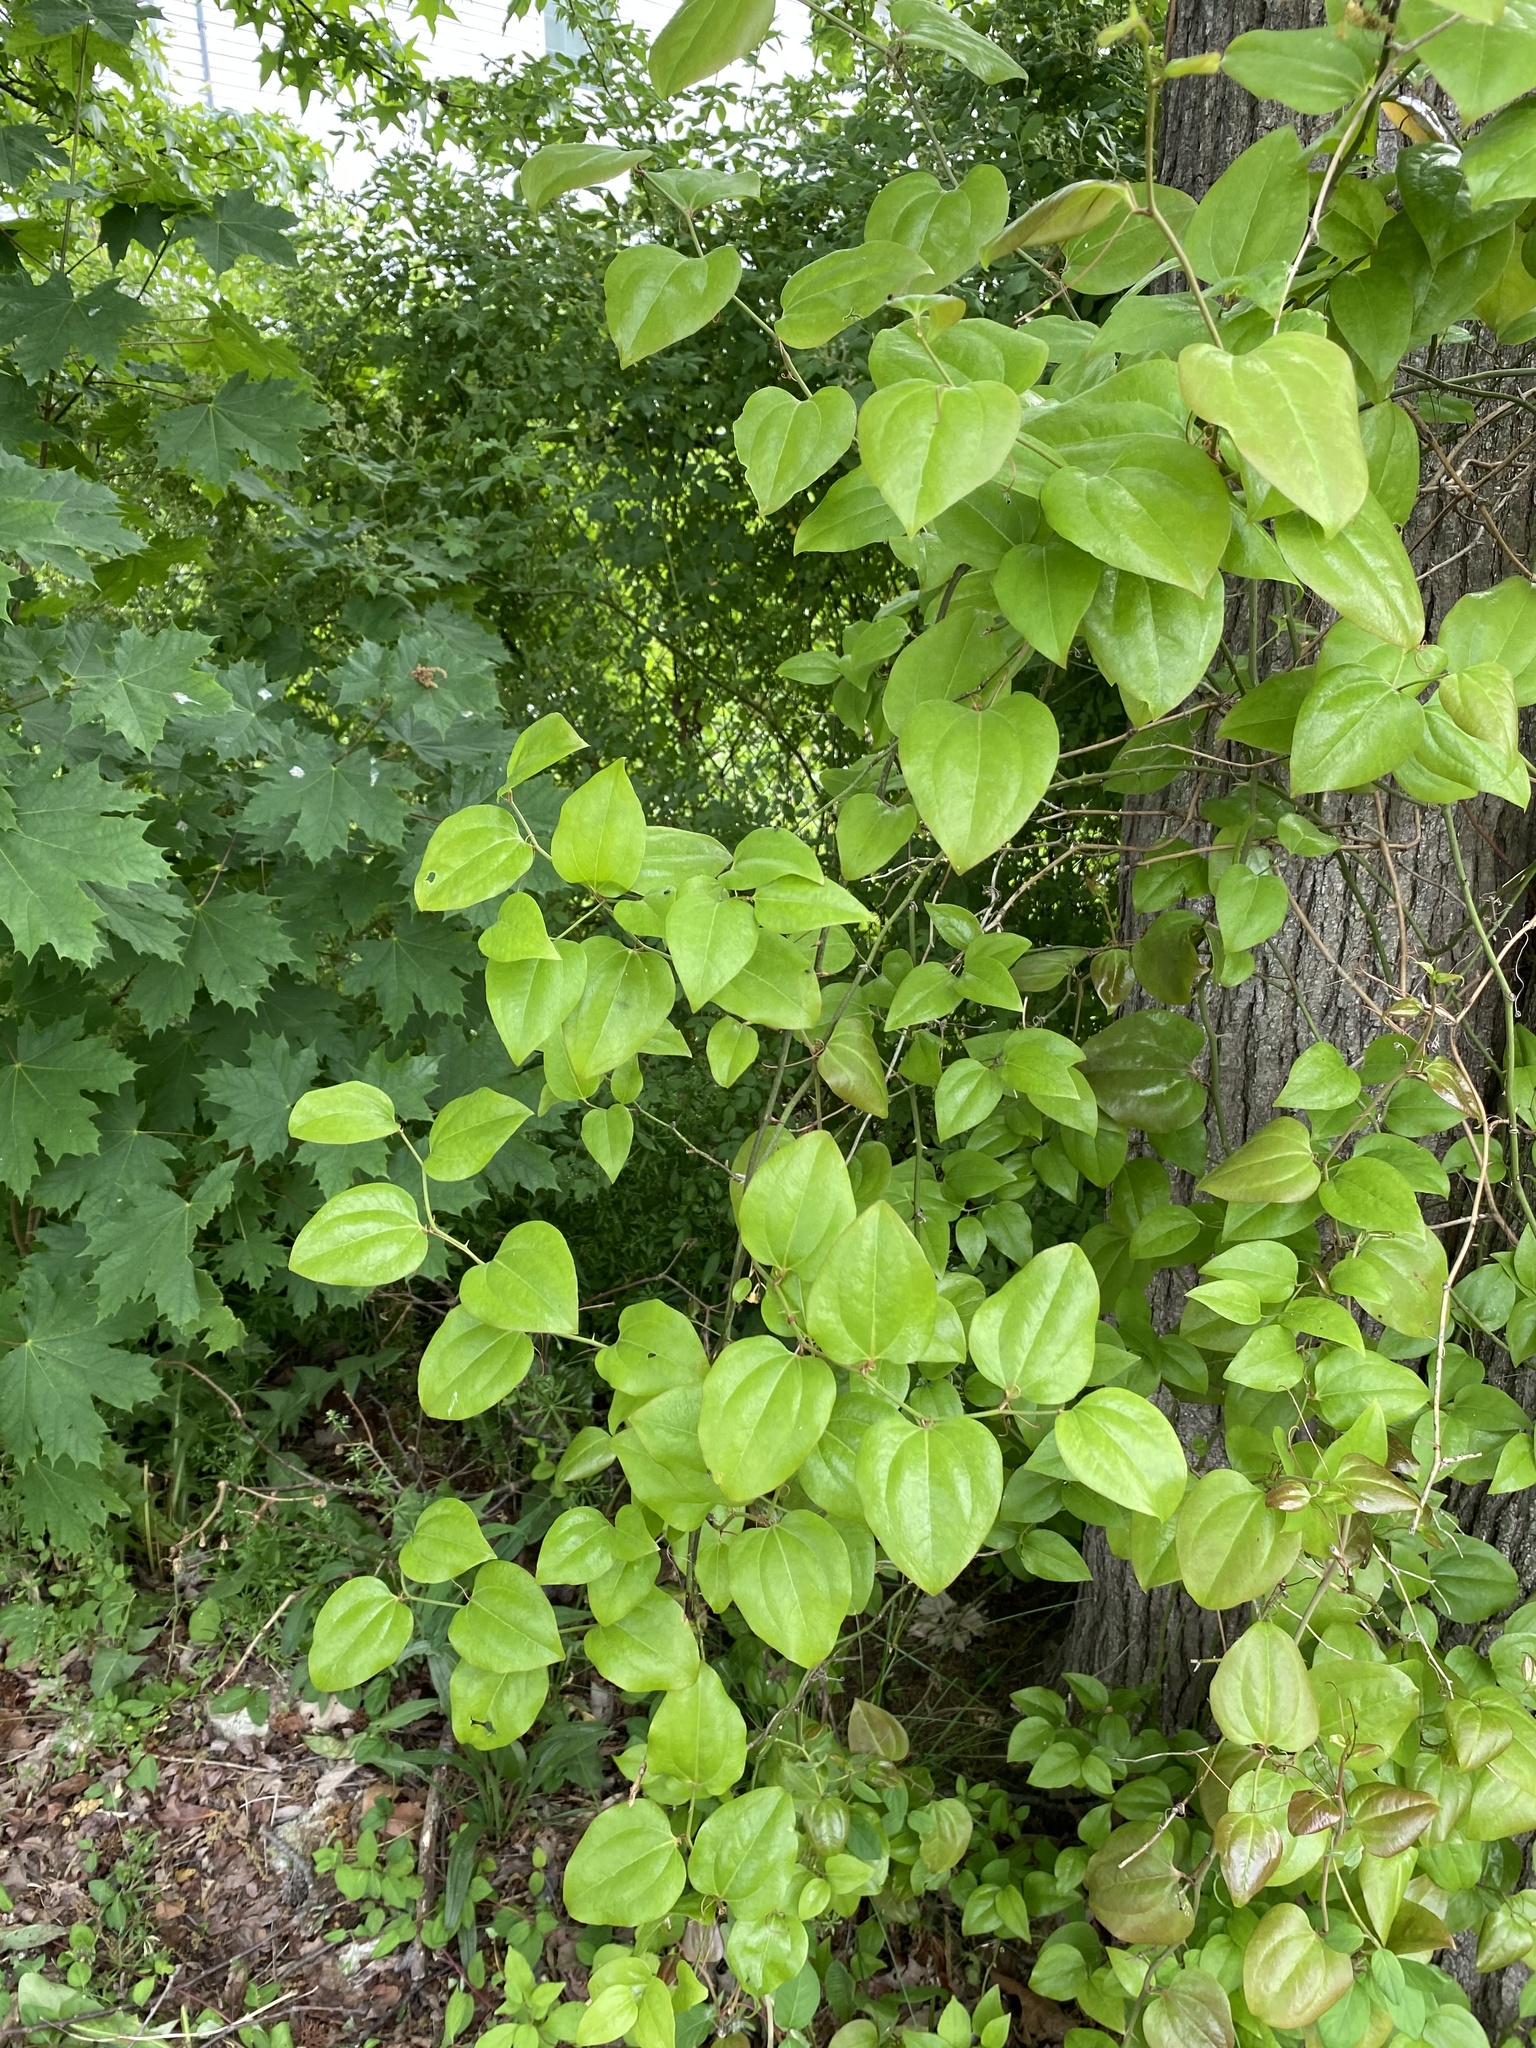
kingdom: Plantae
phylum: Tracheophyta
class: Liliopsida
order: Liliales
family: Smilacaceae
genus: Smilax
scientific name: Smilax rotundifolia
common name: Bullbriar
